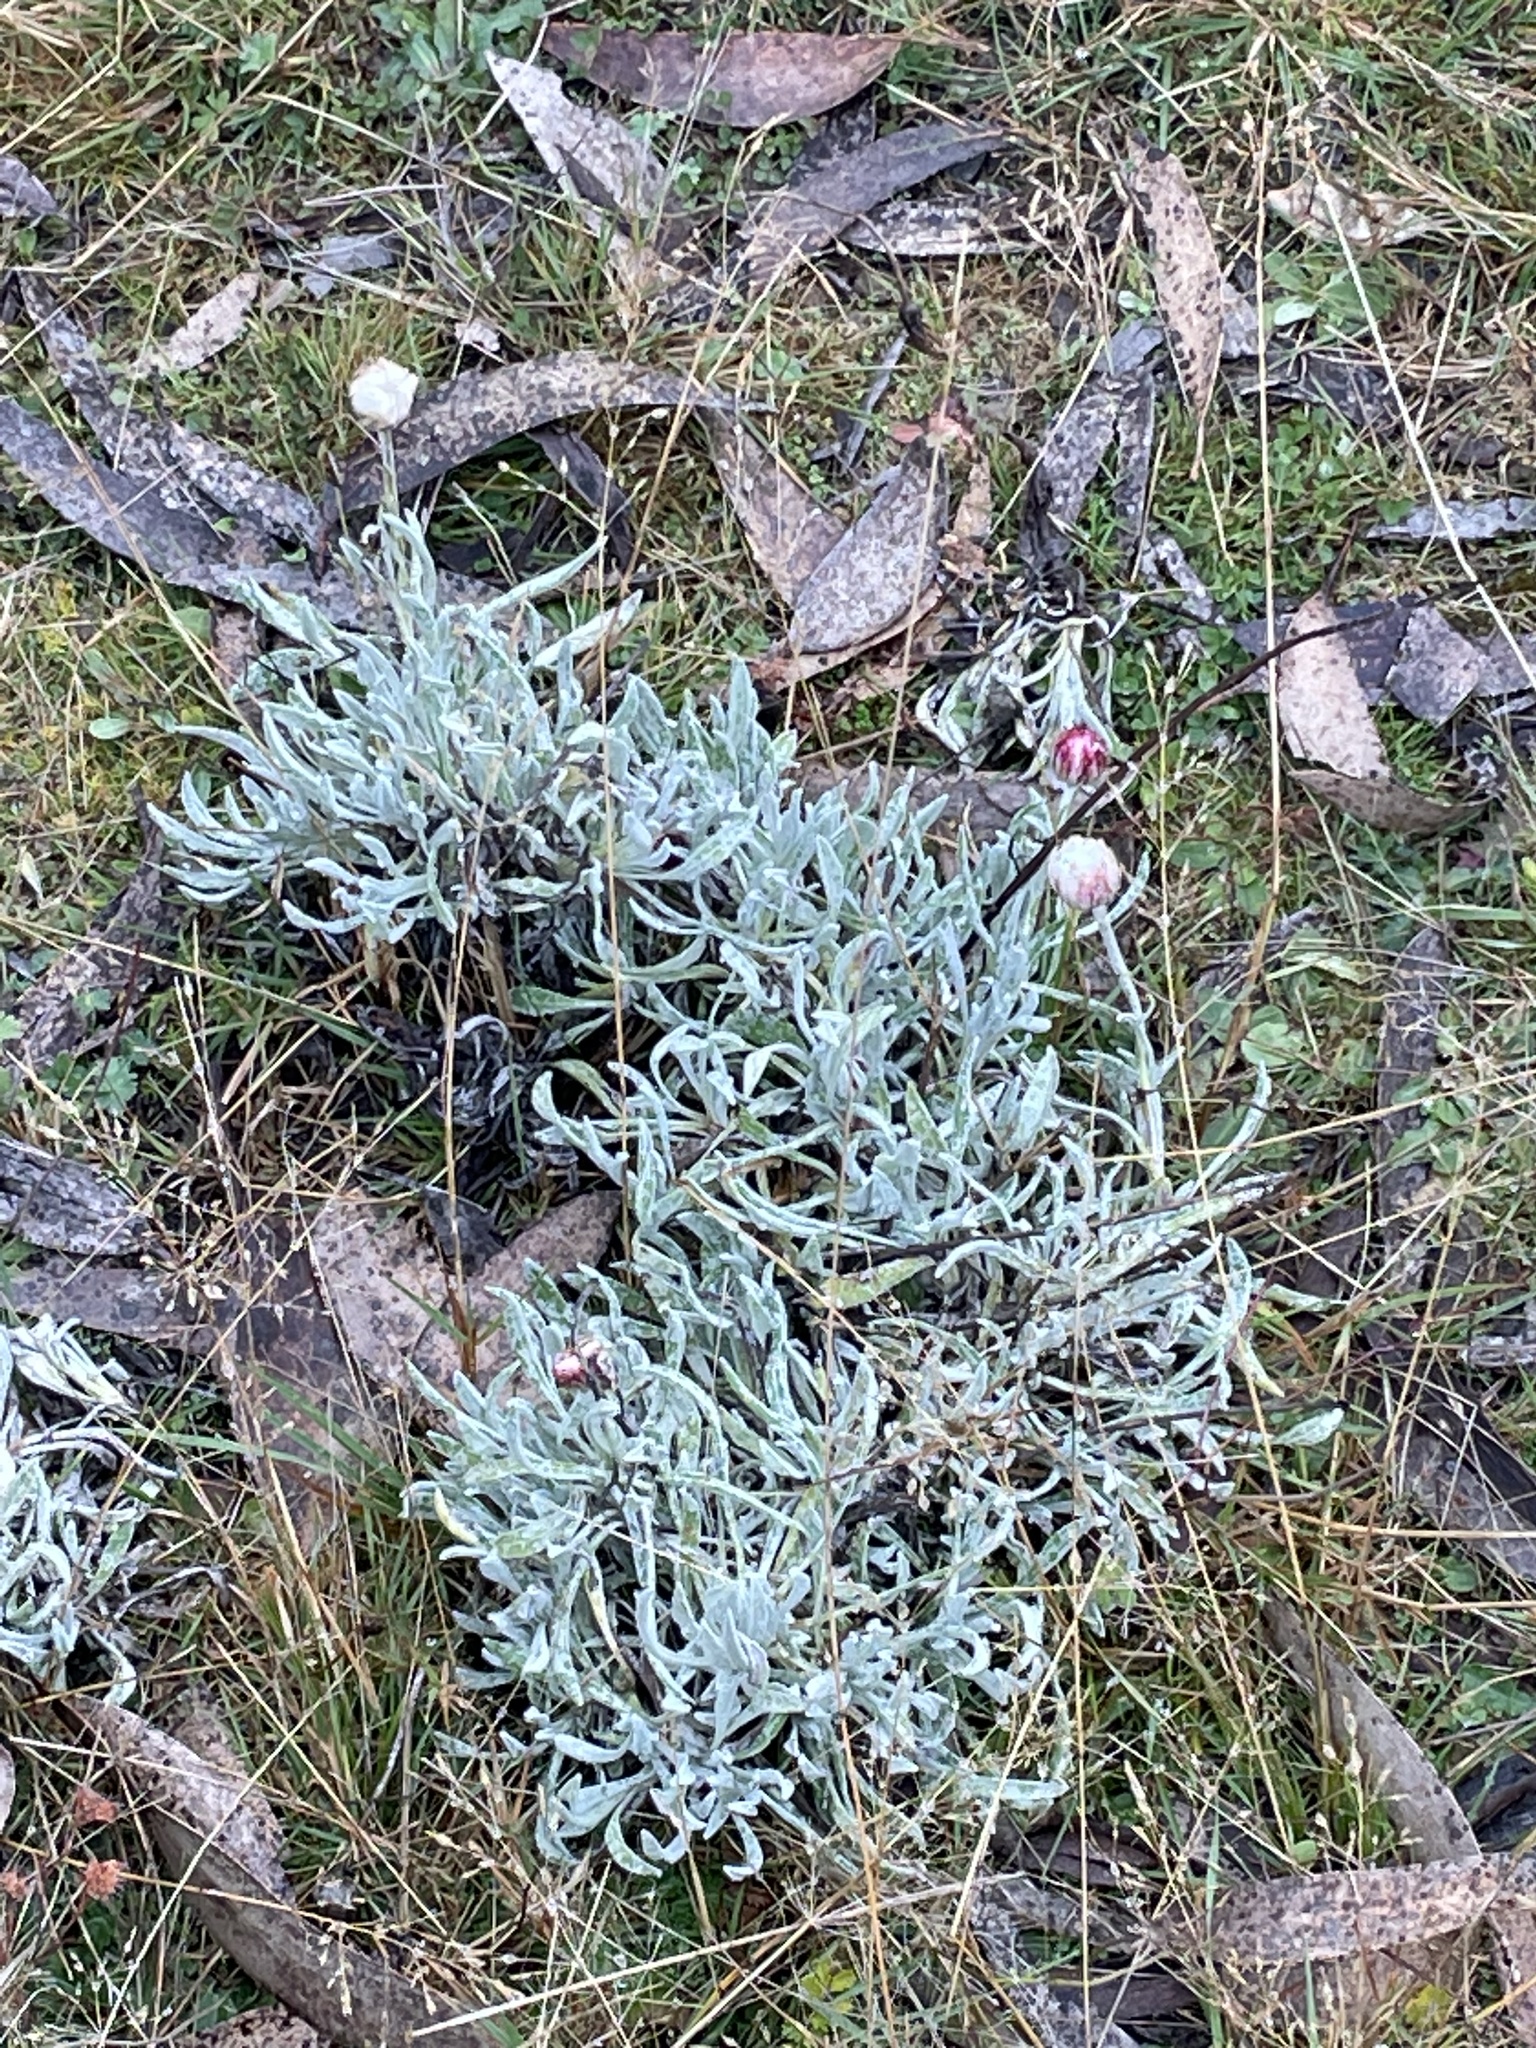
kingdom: Plantae
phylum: Tracheophyta
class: Magnoliopsida
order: Asterales
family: Asteraceae
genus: Leucochrysum
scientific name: Leucochrysum alpinum
